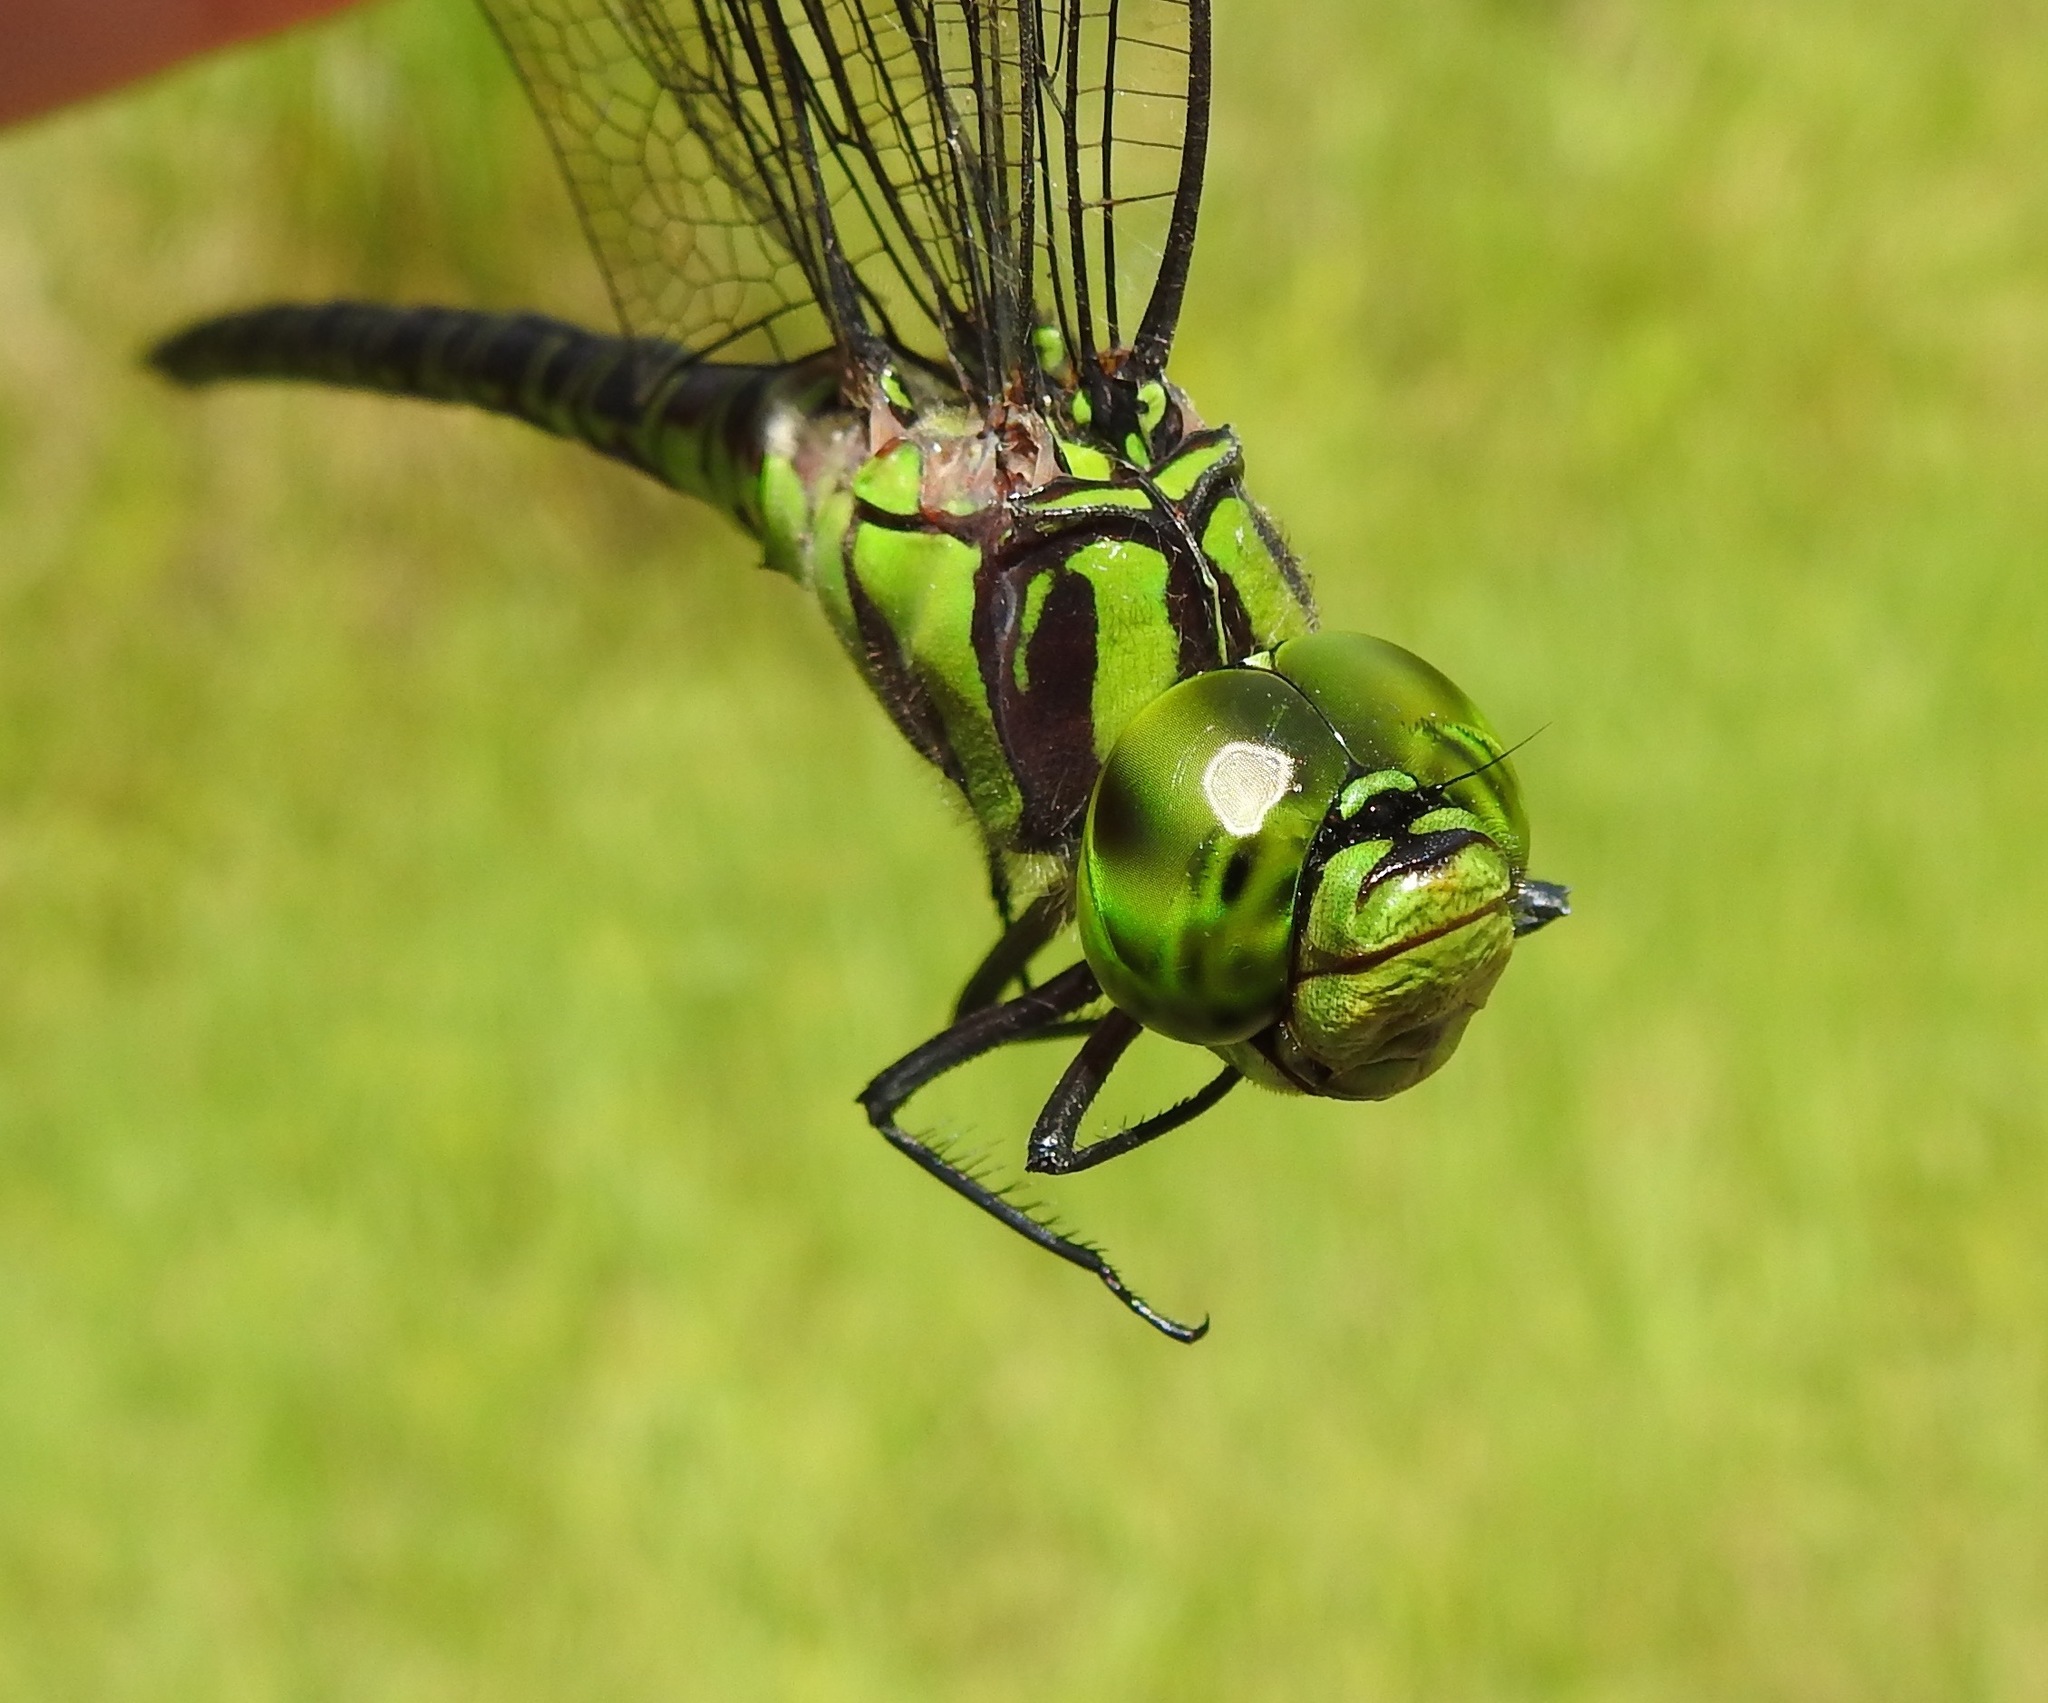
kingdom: Animalia
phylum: Arthropoda
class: Insecta
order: Odonata
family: Aeshnidae
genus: Coryphaeschna
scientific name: Coryphaeschna ingens
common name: Regal darner
